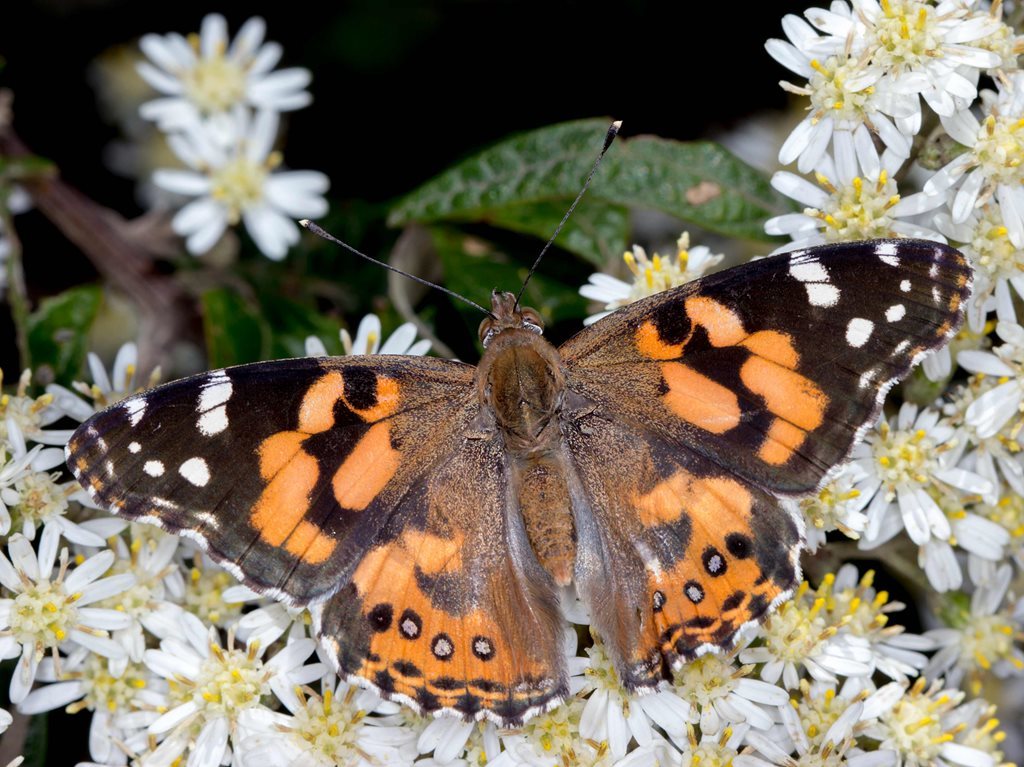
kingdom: Animalia
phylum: Arthropoda
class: Insecta
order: Lepidoptera
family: Nymphalidae
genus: Vanessa
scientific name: Vanessa kershawi
